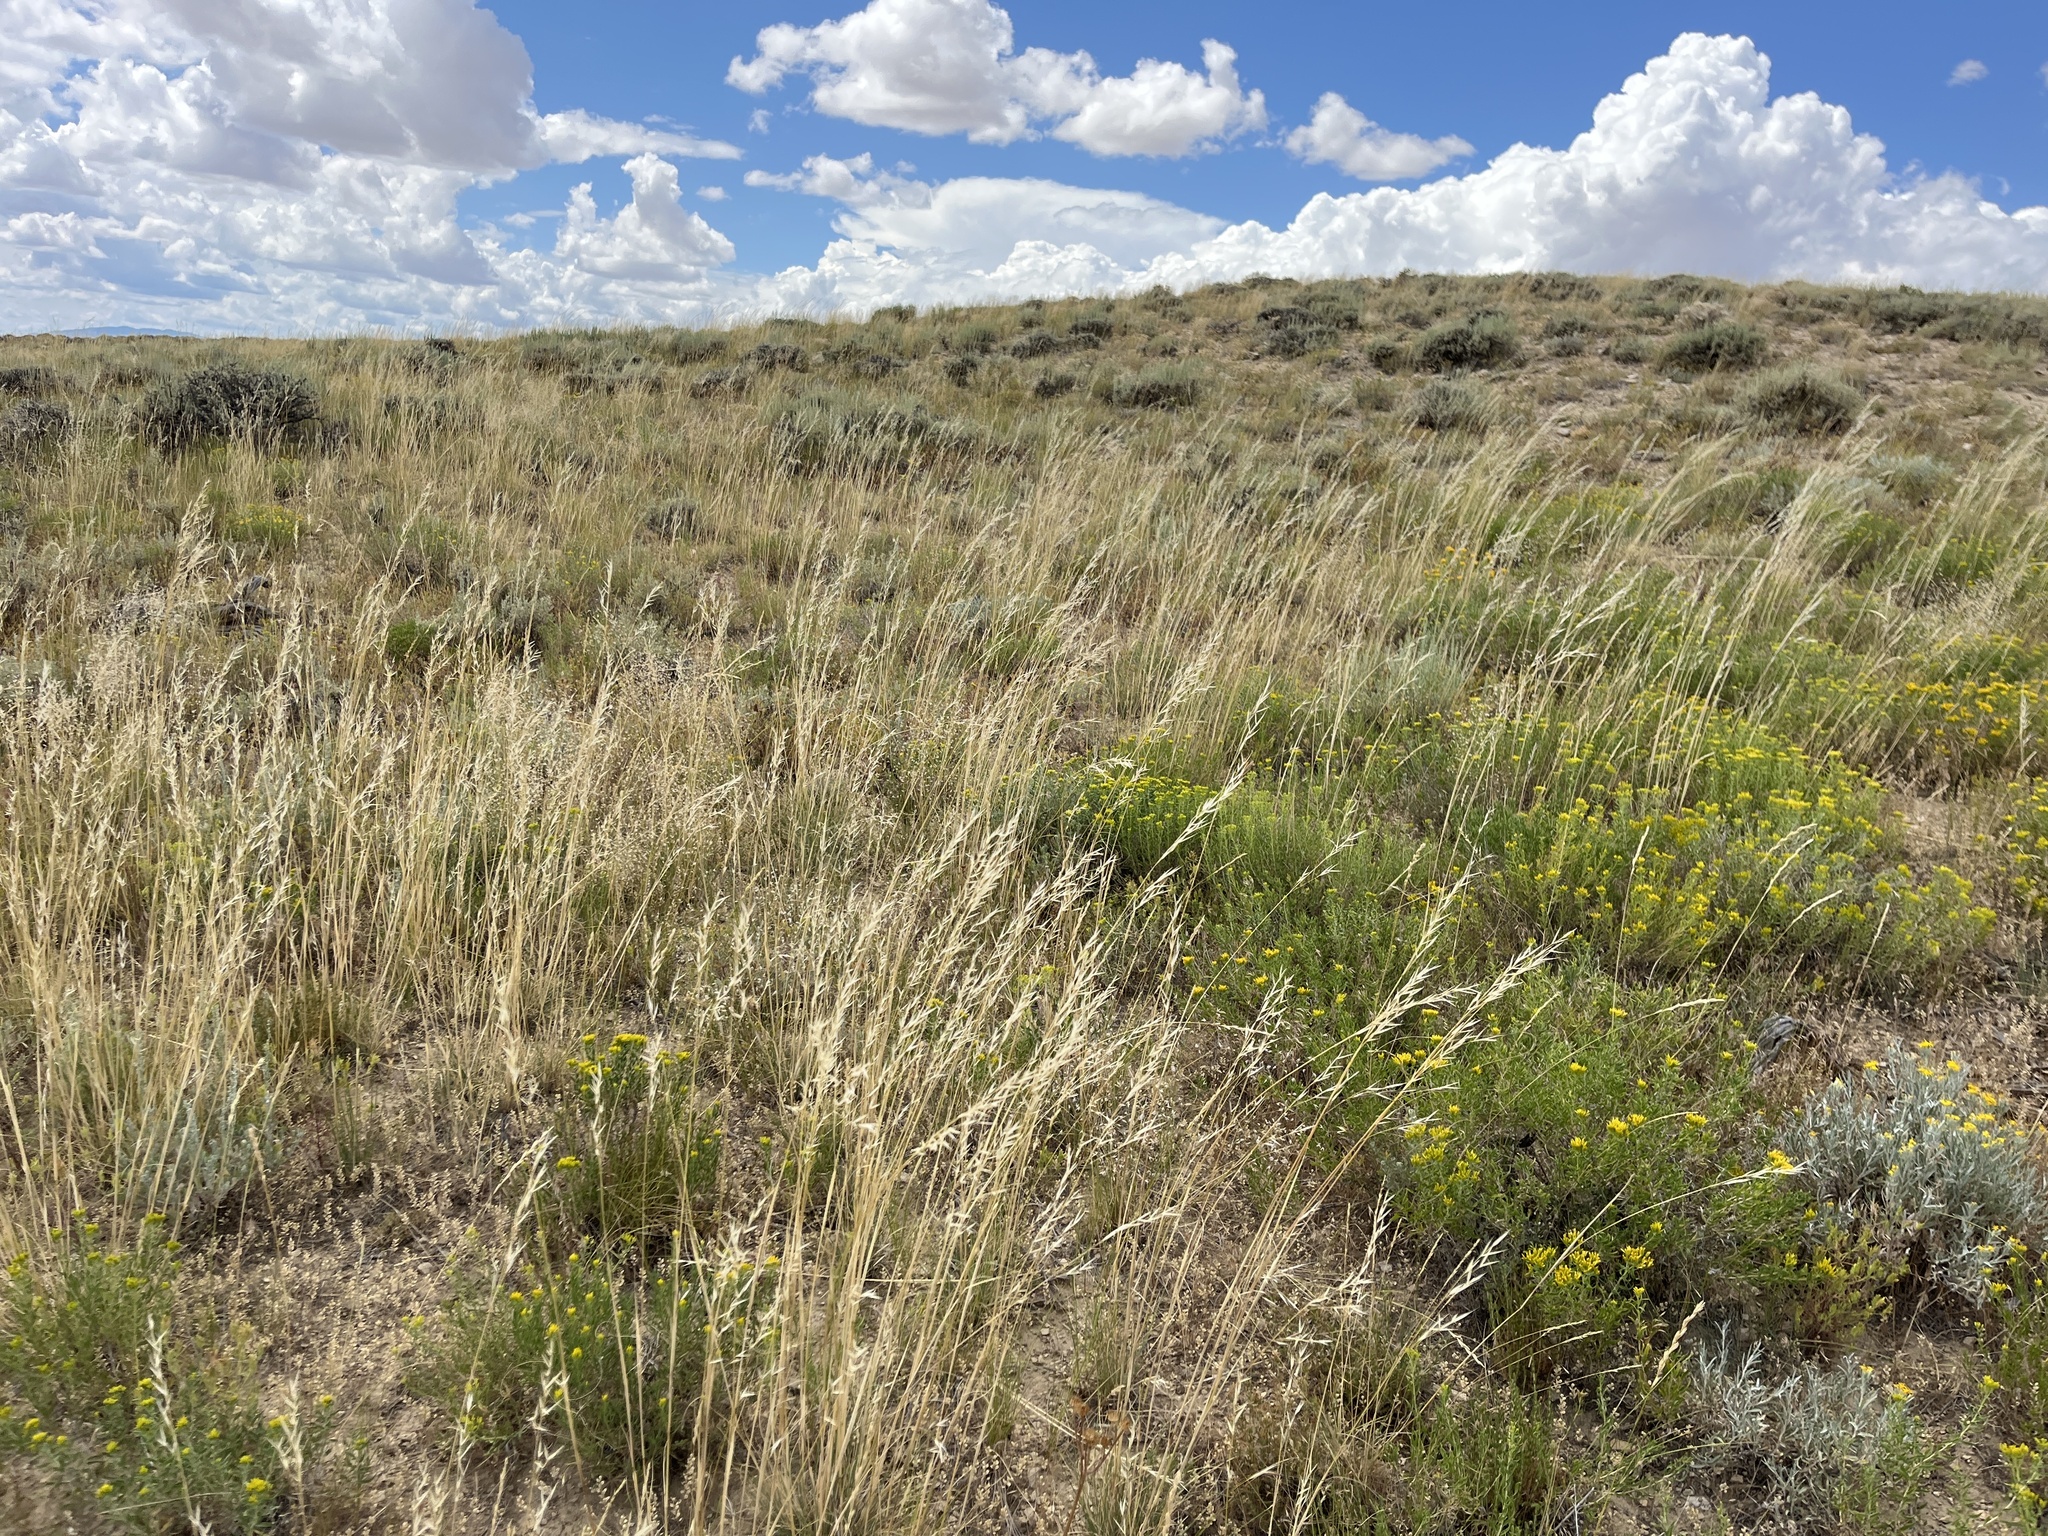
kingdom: Plantae
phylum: Tracheophyta
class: Liliopsida
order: Poales
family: Poaceae
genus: Hesperostipa
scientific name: Hesperostipa comata
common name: Needle-and-thread grass
